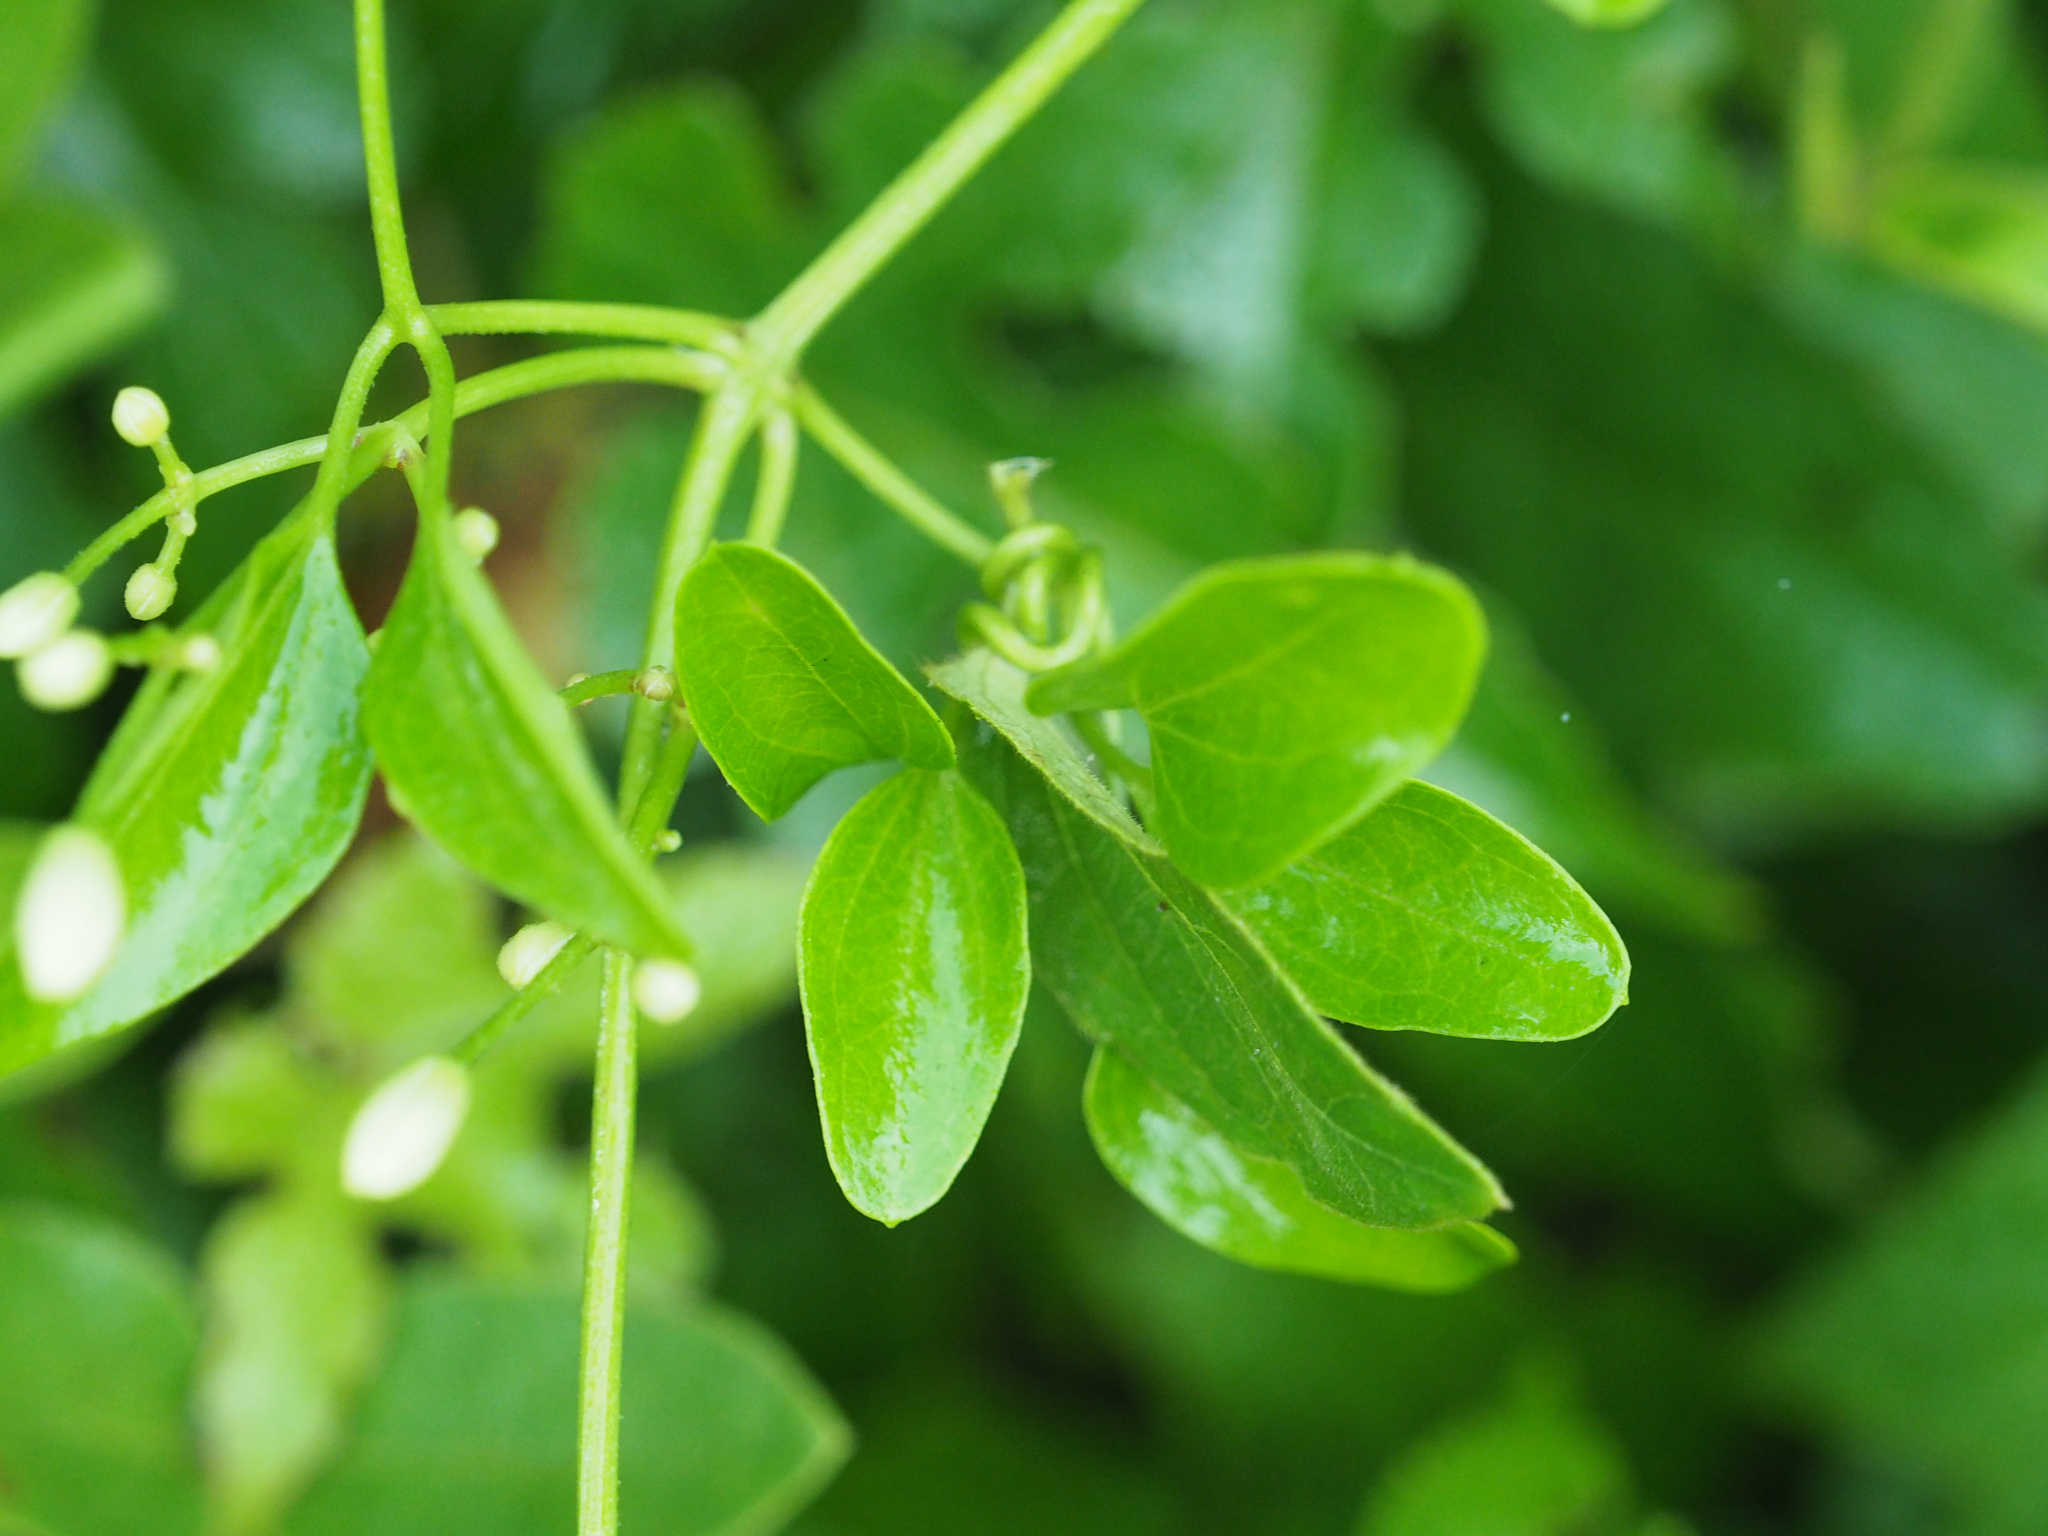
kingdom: Plantae
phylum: Tracheophyta
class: Magnoliopsida
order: Ranunculales
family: Ranunculaceae
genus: Clematis
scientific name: Clematis terniflora
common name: Sweet autumn clematis
